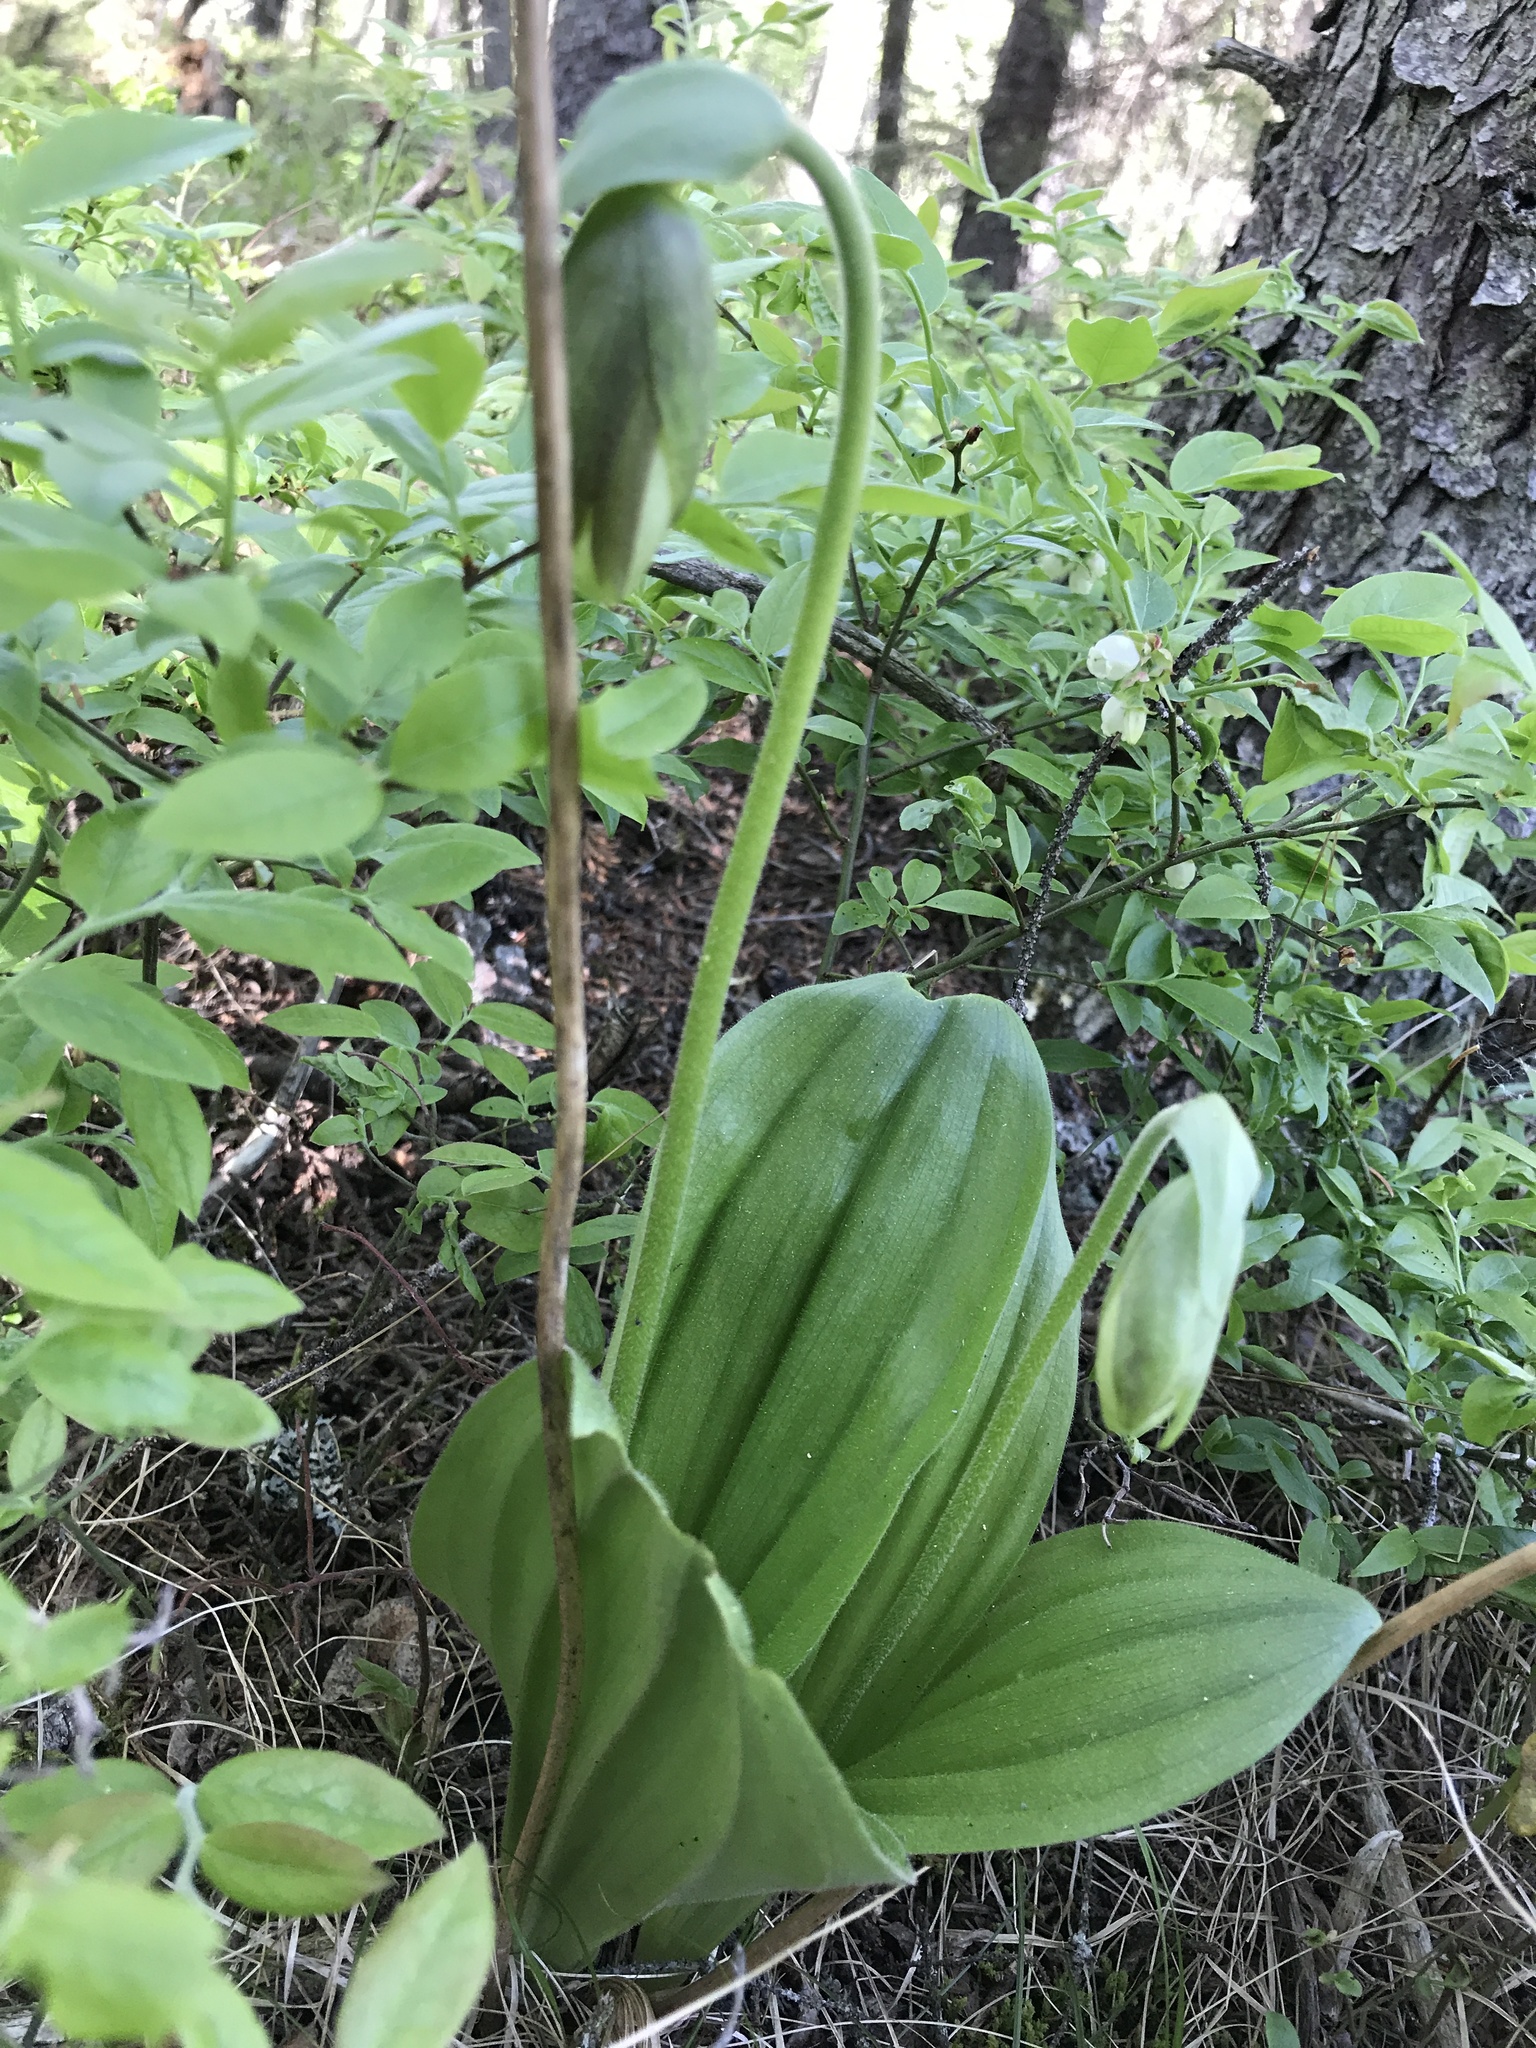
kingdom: Plantae
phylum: Tracheophyta
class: Liliopsida
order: Asparagales
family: Orchidaceae
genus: Cypripedium
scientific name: Cypripedium acaule
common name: Pink lady's-slipper
